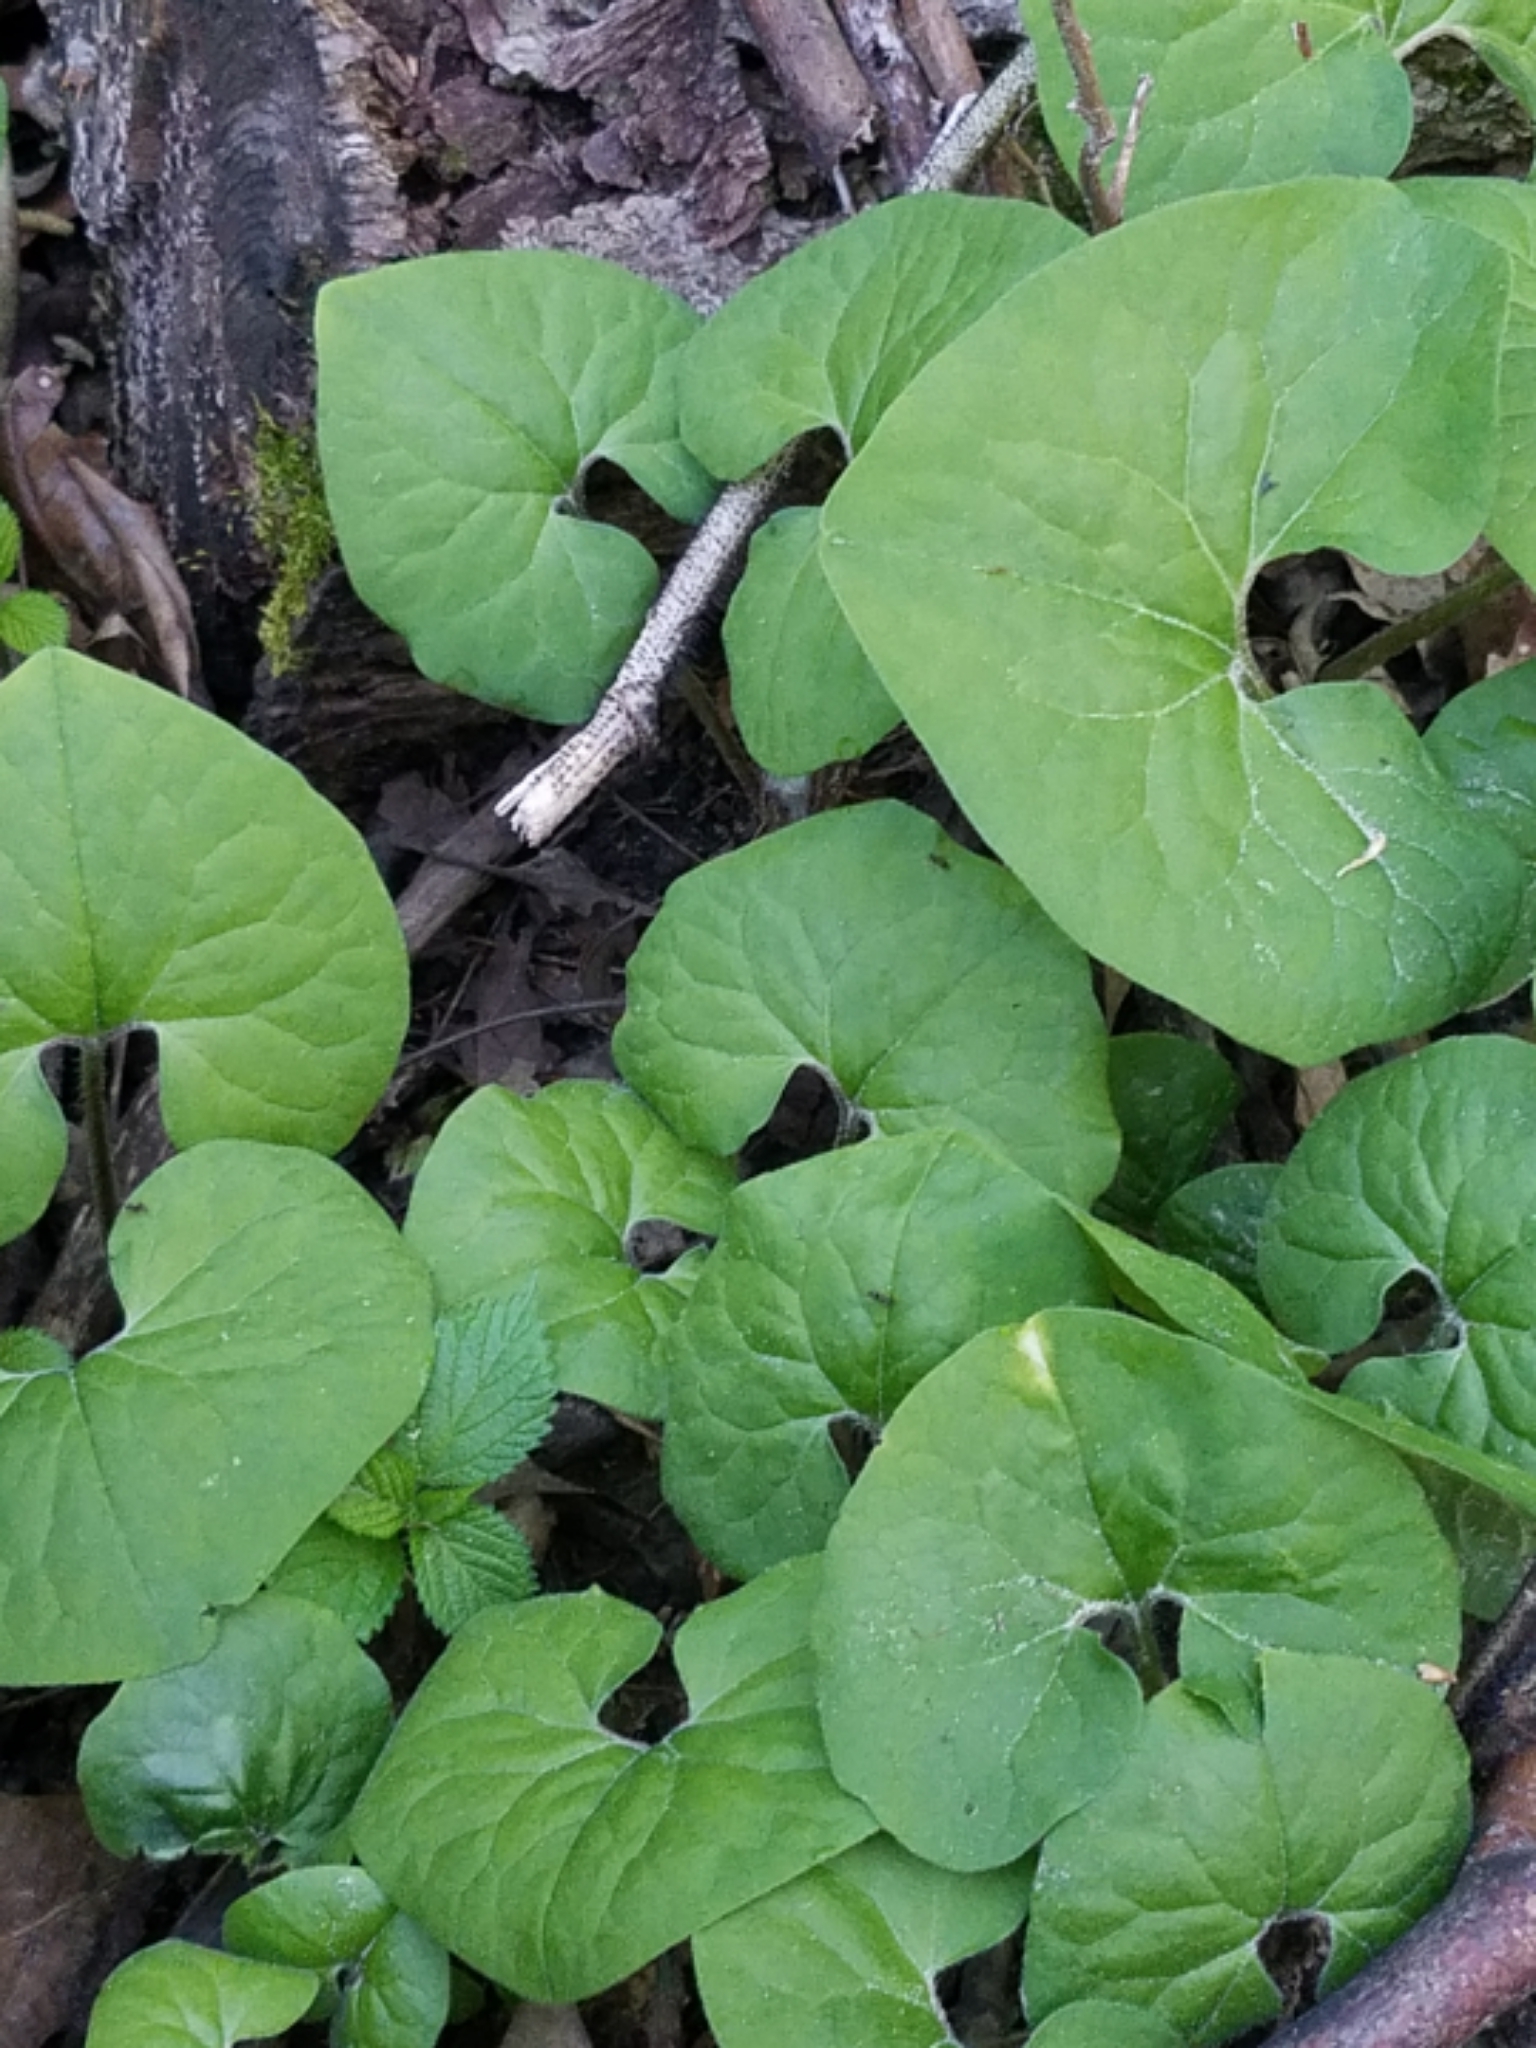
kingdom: Plantae
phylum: Tracheophyta
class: Magnoliopsida
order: Piperales
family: Aristolochiaceae
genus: Asarum
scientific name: Asarum canadense
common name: Wild ginger
